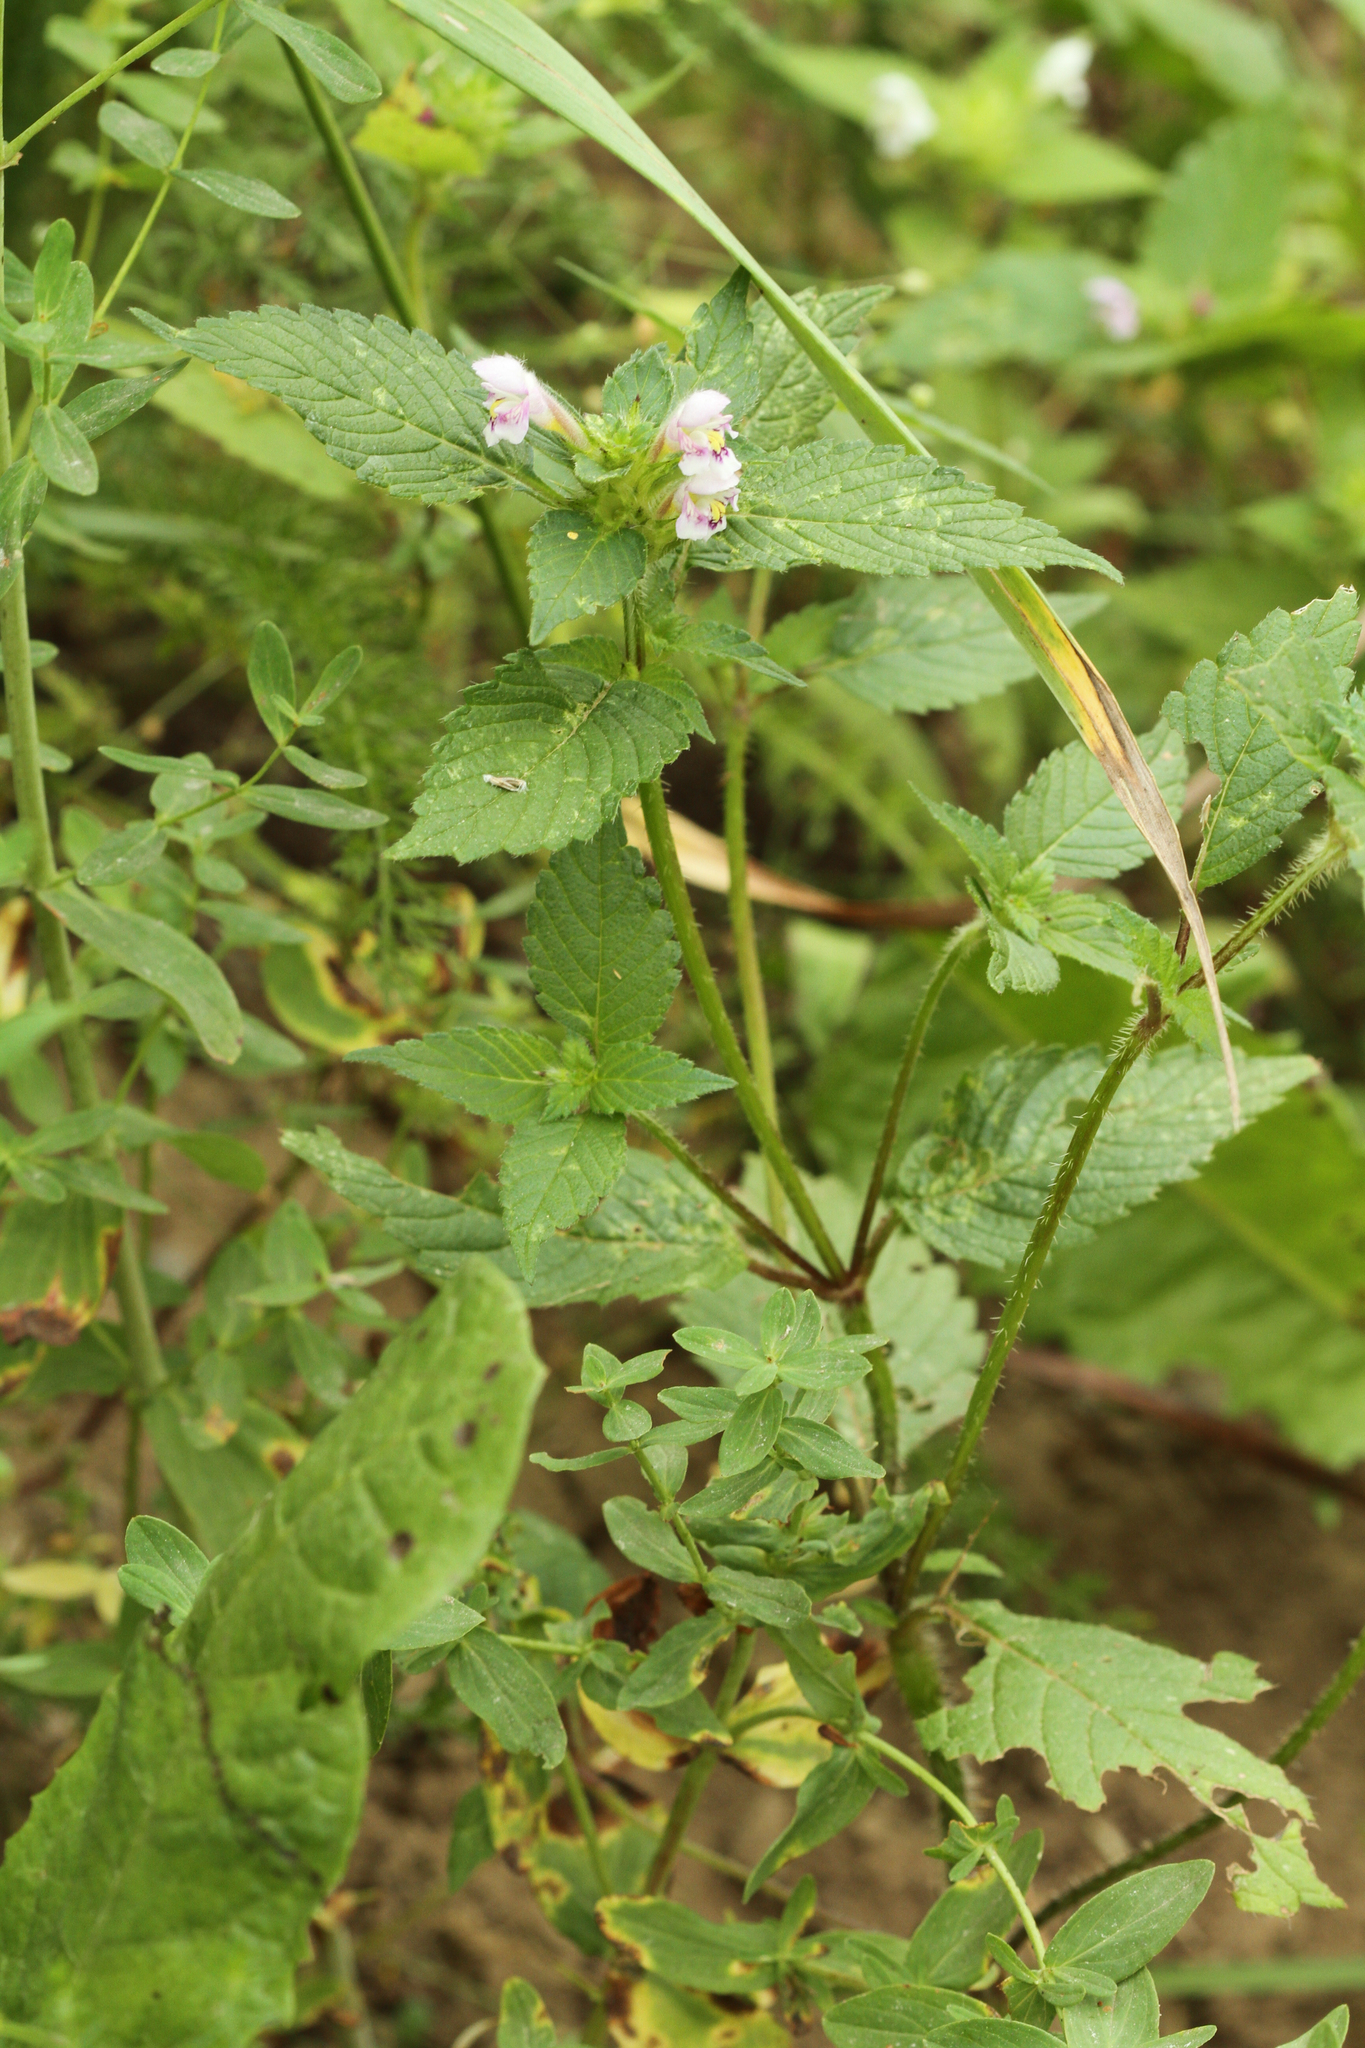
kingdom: Plantae
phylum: Tracheophyta
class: Magnoliopsida
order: Lamiales
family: Lamiaceae
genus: Galeopsis
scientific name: Galeopsis tetrahit
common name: Common hemp-nettle
